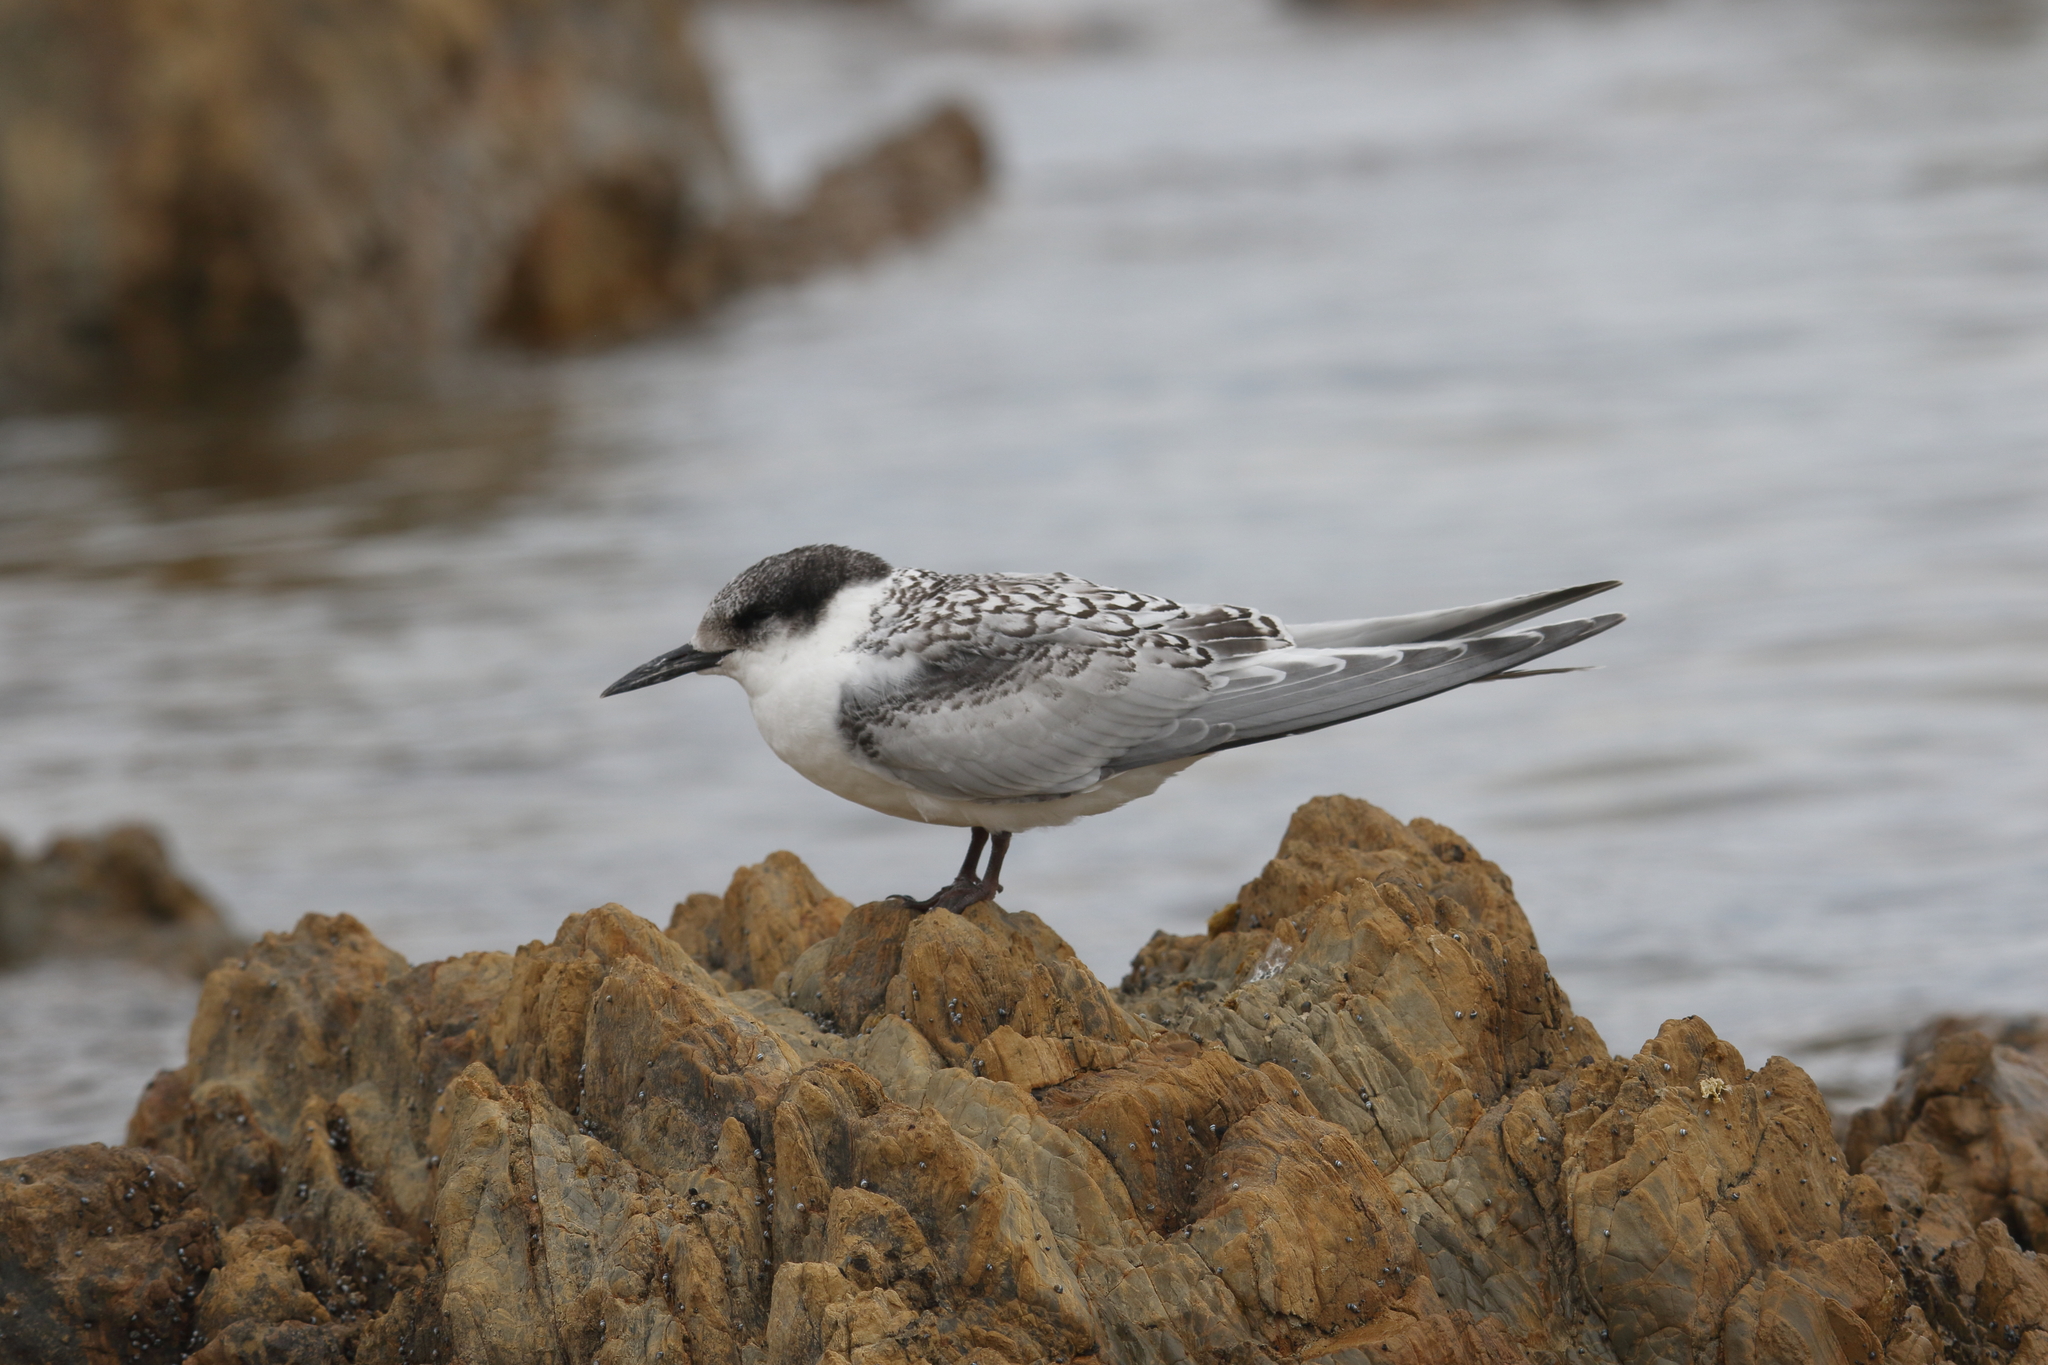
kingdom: Animalia
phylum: Chordata
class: Aves
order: Charadriiformes
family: Laridae
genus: Sterna
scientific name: Sterna striata
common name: White-fronted tern
